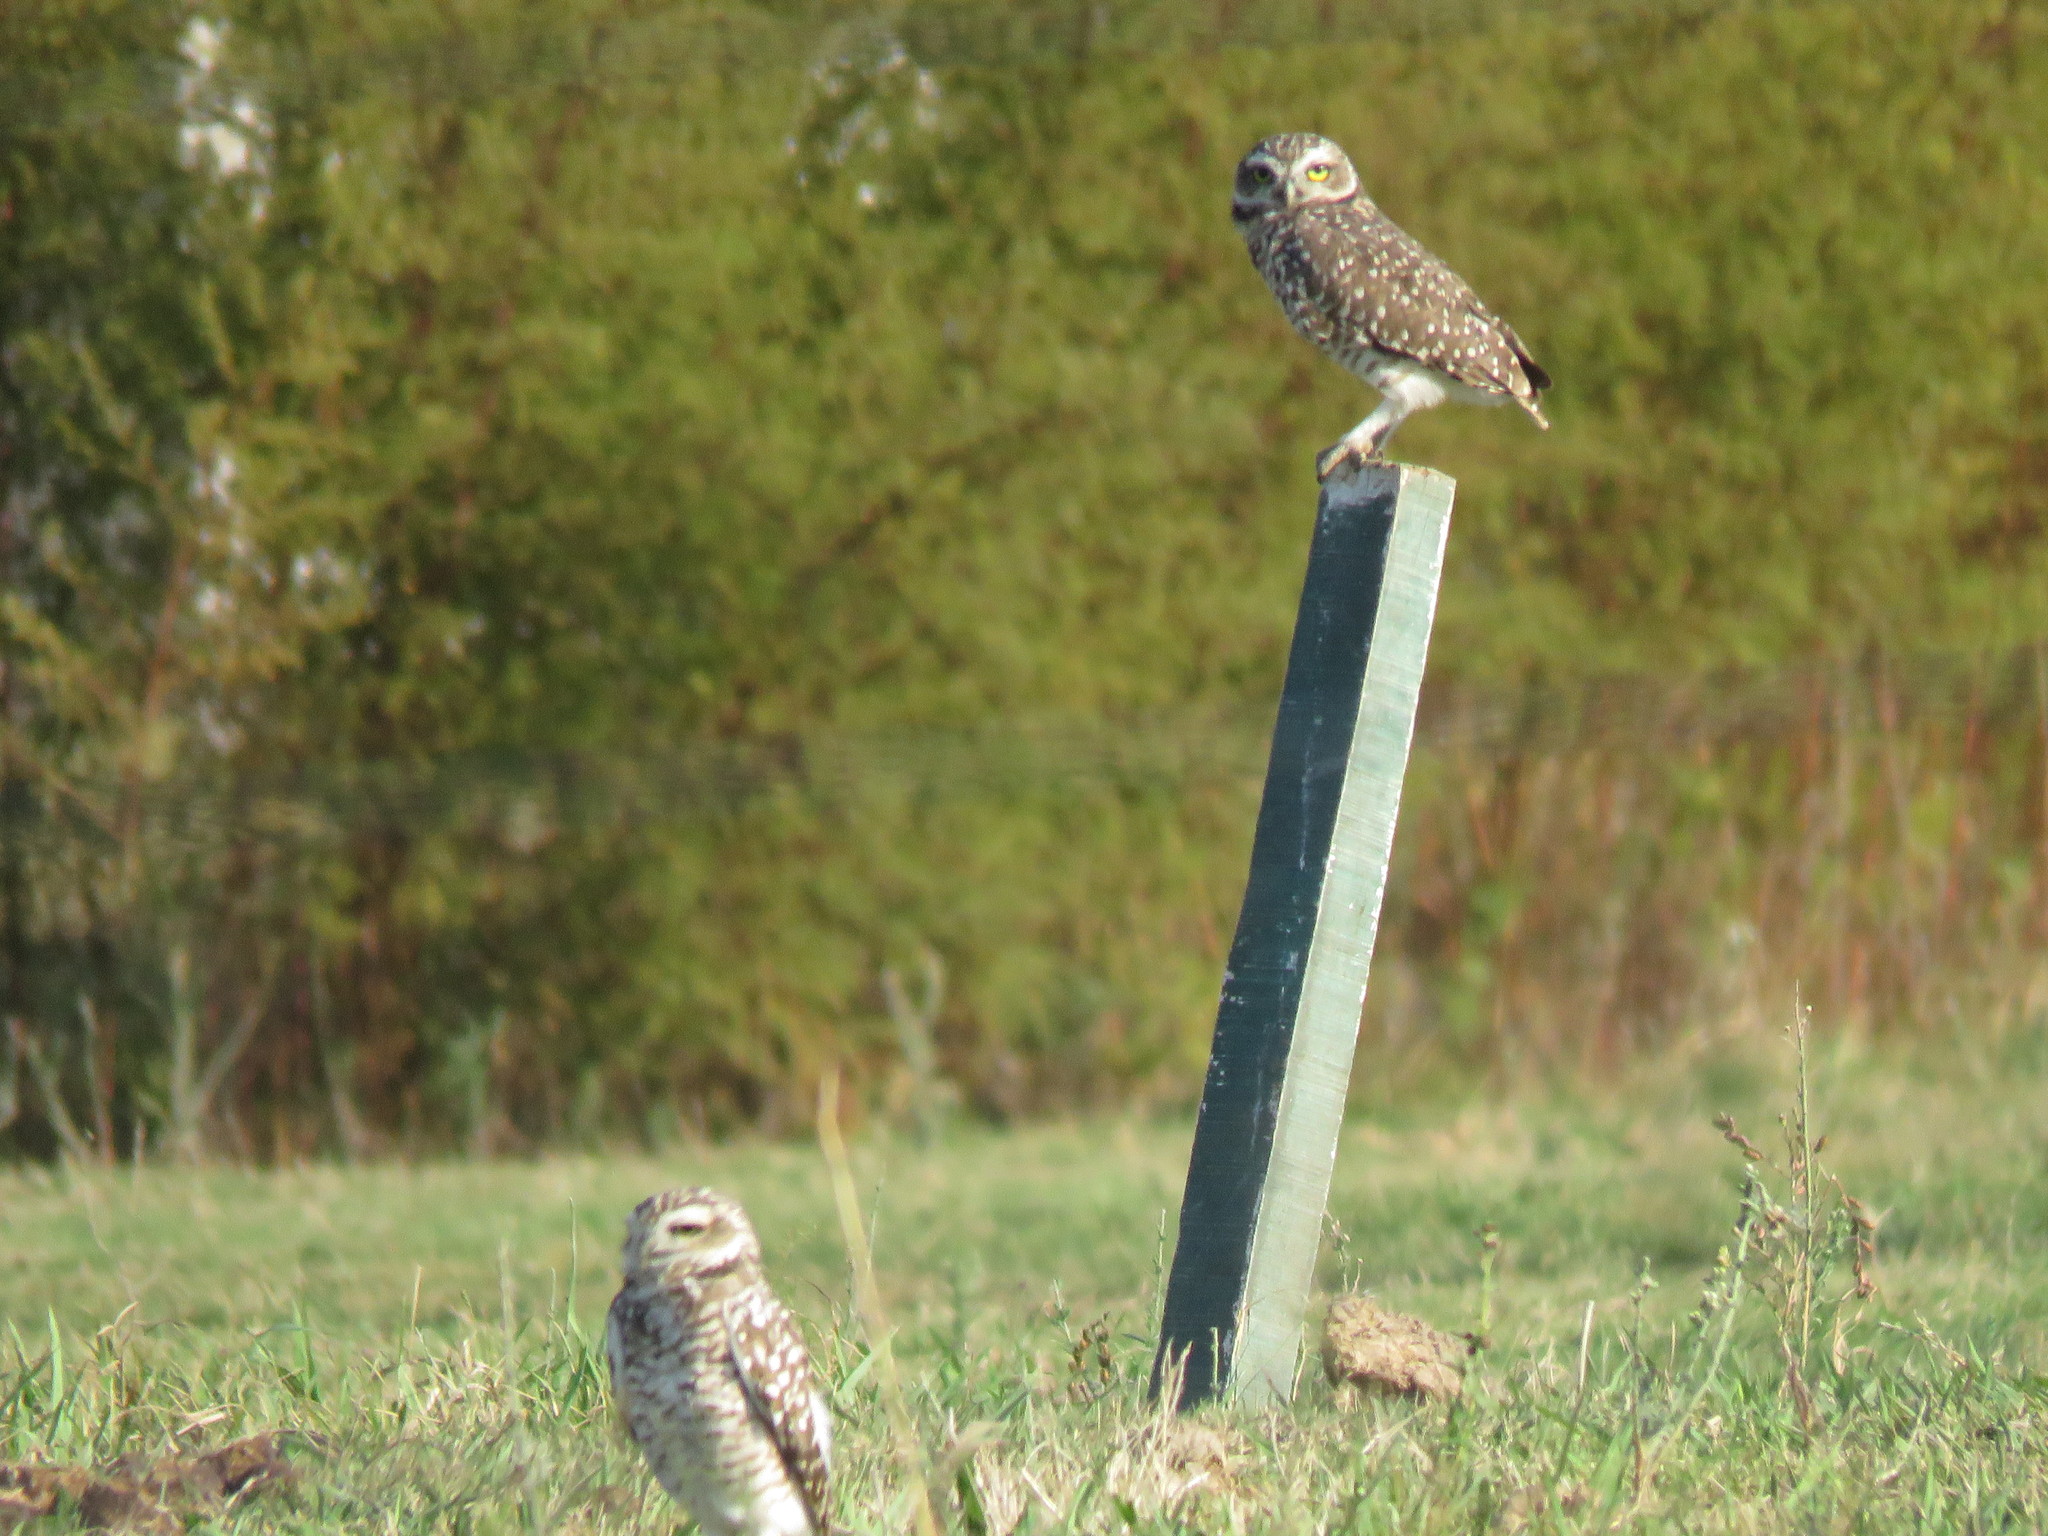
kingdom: Animalia
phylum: Chordata
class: Aves
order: Strigiformes
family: Strigidae
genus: Athene
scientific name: Athene cunicularia
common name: Burrowing owl
